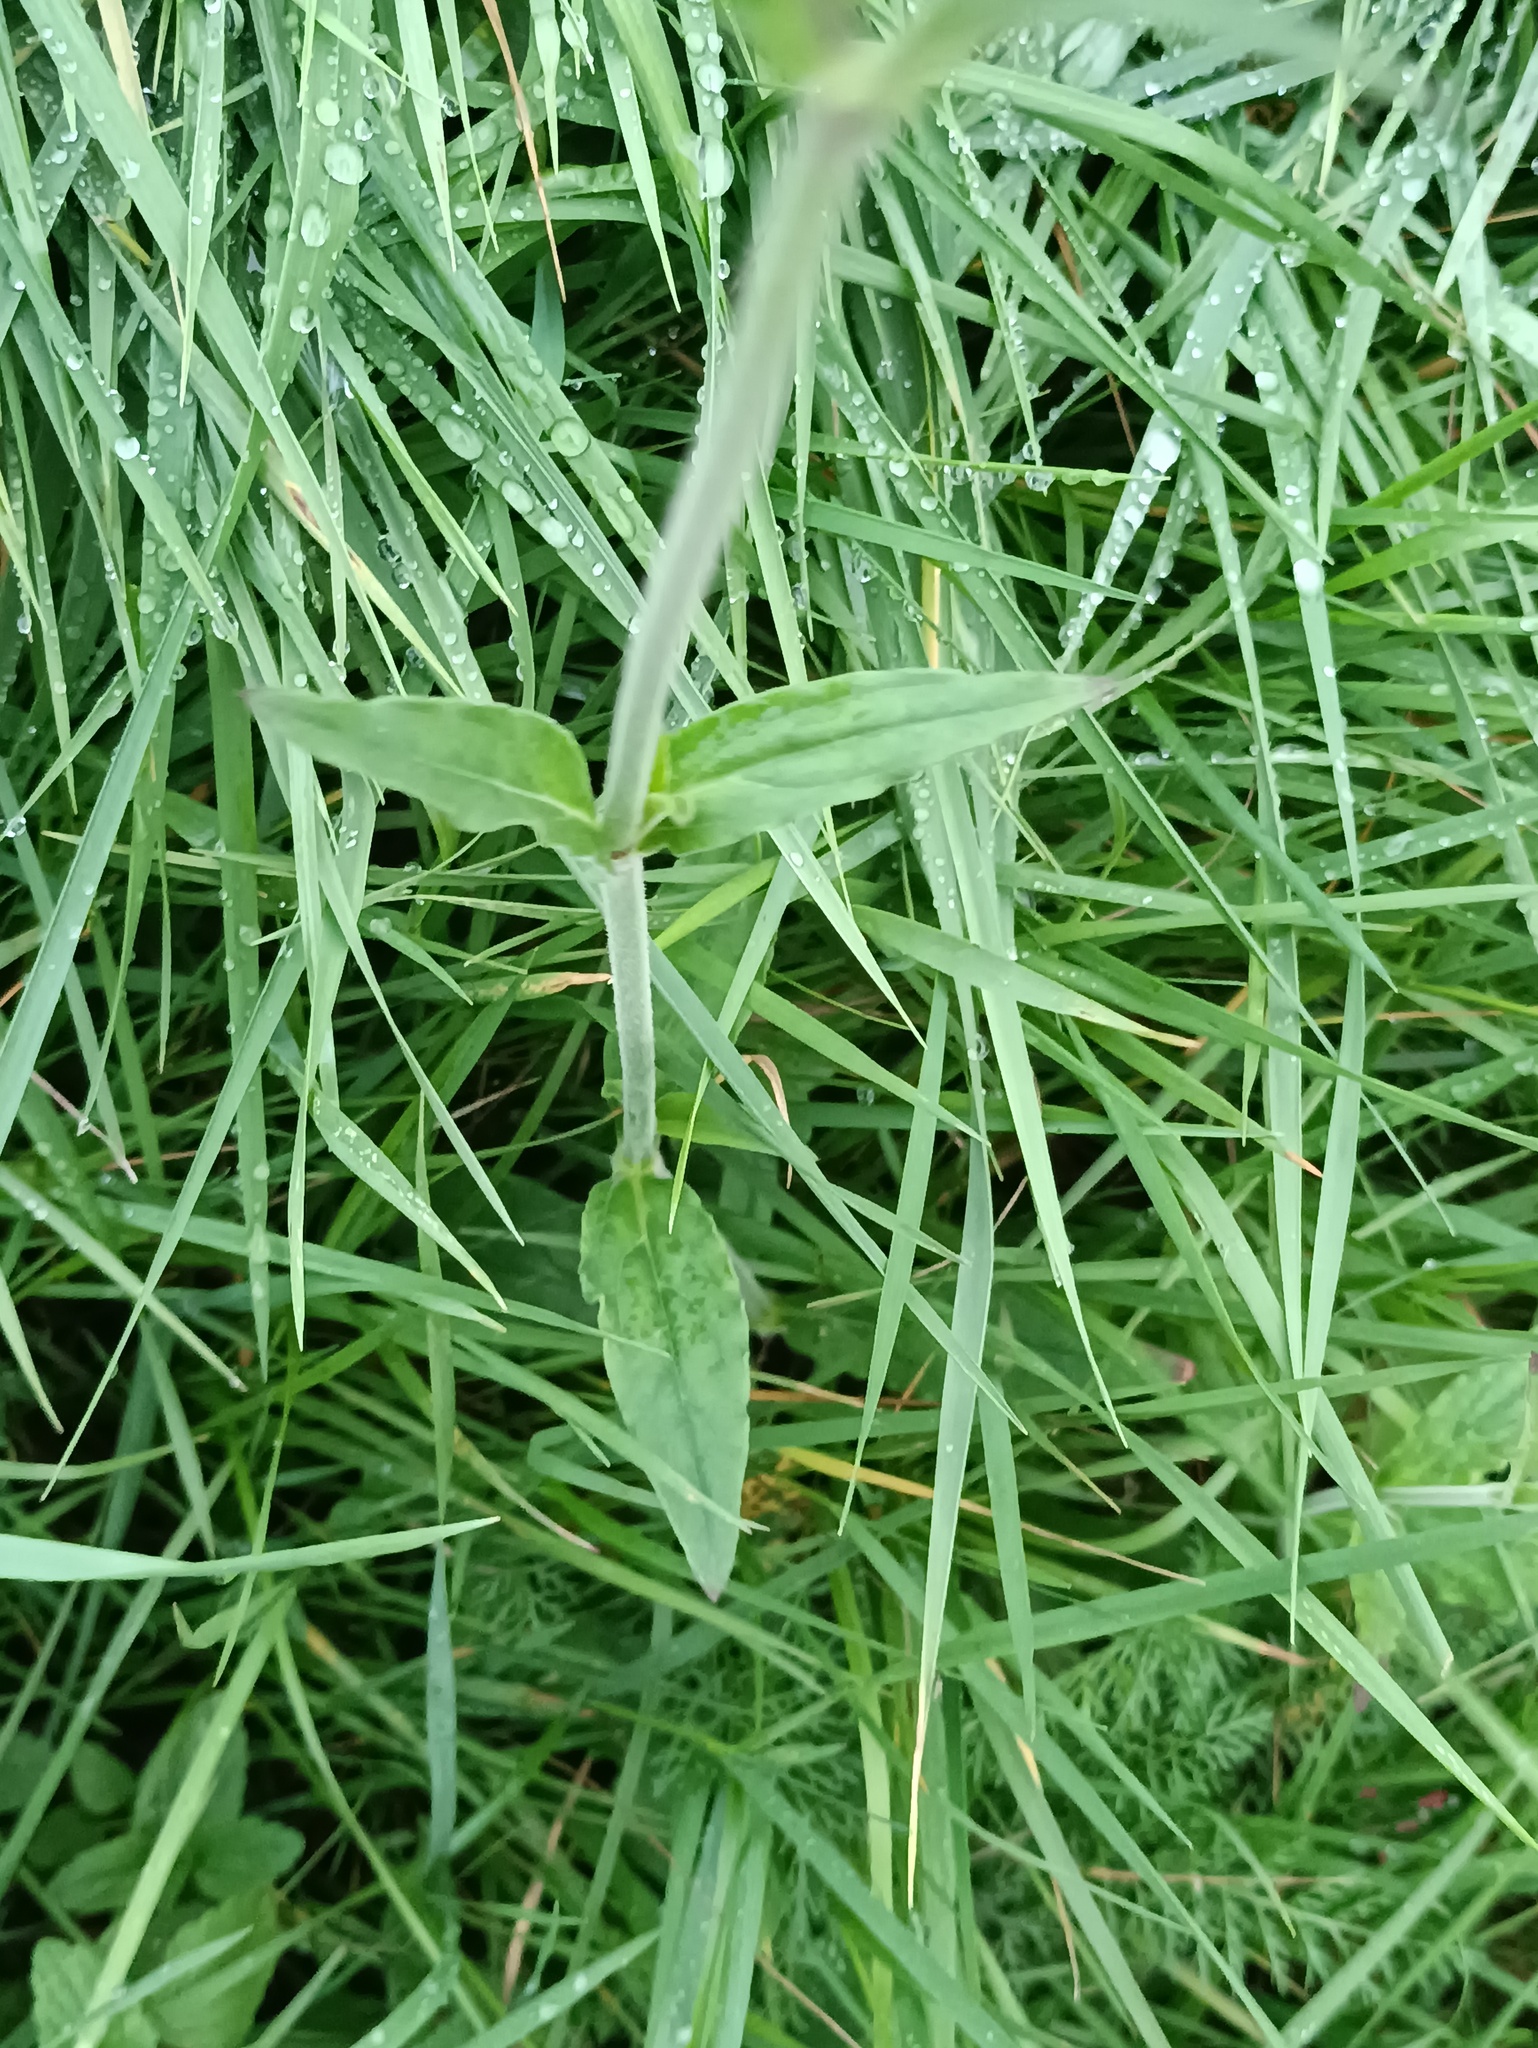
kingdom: Plantae
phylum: Tracheophyta
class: Magnoliopsida
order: Caryophyllales
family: Caryophyllaceae
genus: Silene
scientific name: Silene latifolia
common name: White campion
